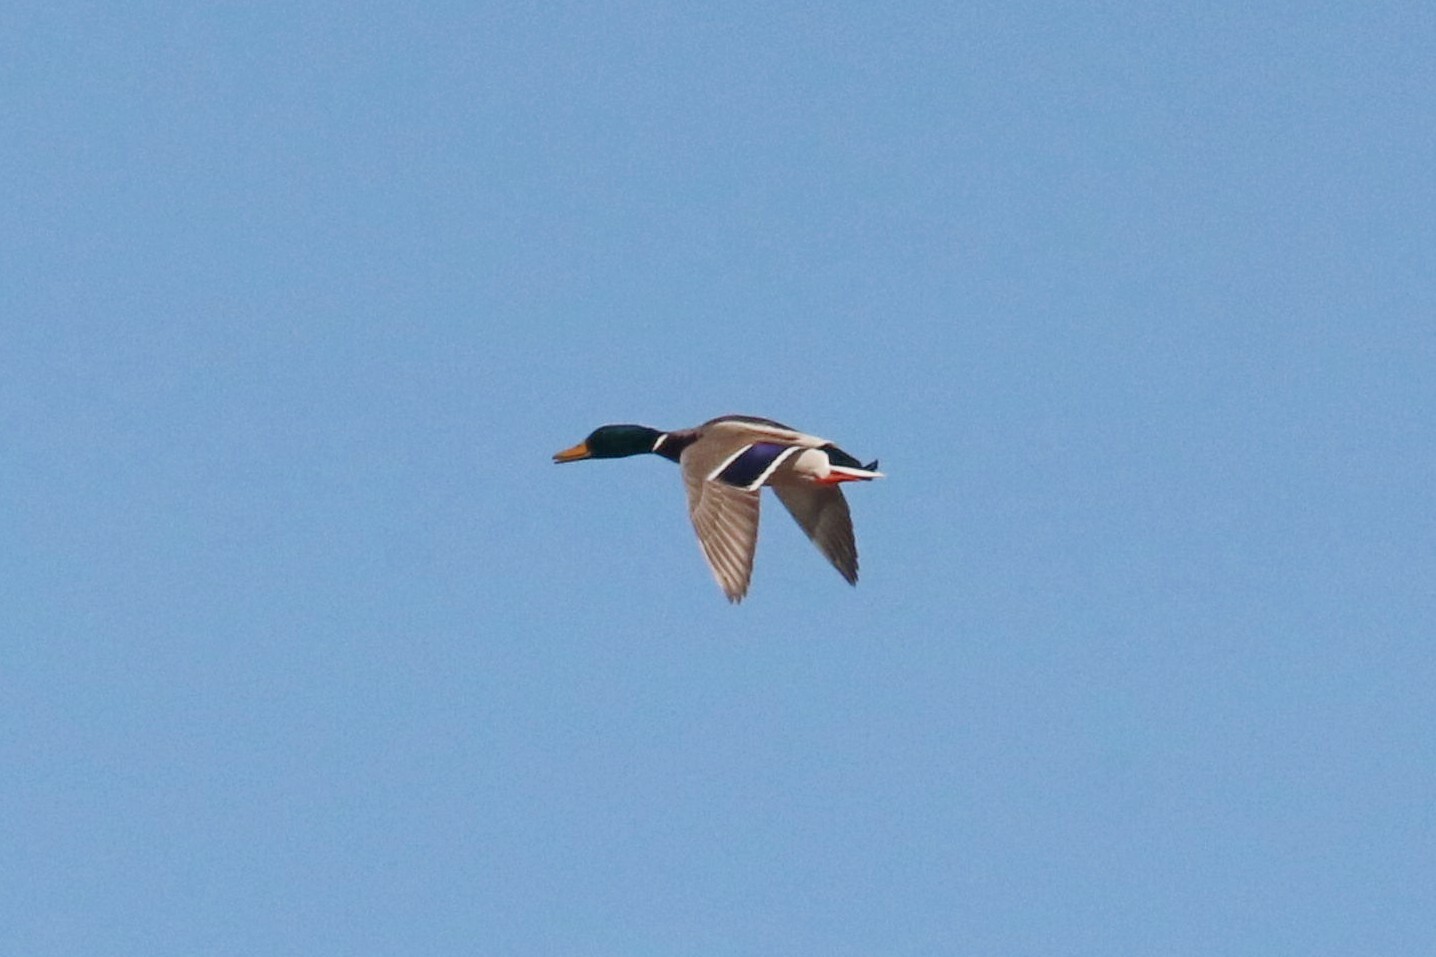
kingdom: Animalia
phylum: Chordata
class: Aves
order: Anseriformes
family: Anatidae
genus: Anas
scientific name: Anas platyrhynchos
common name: Mallard
